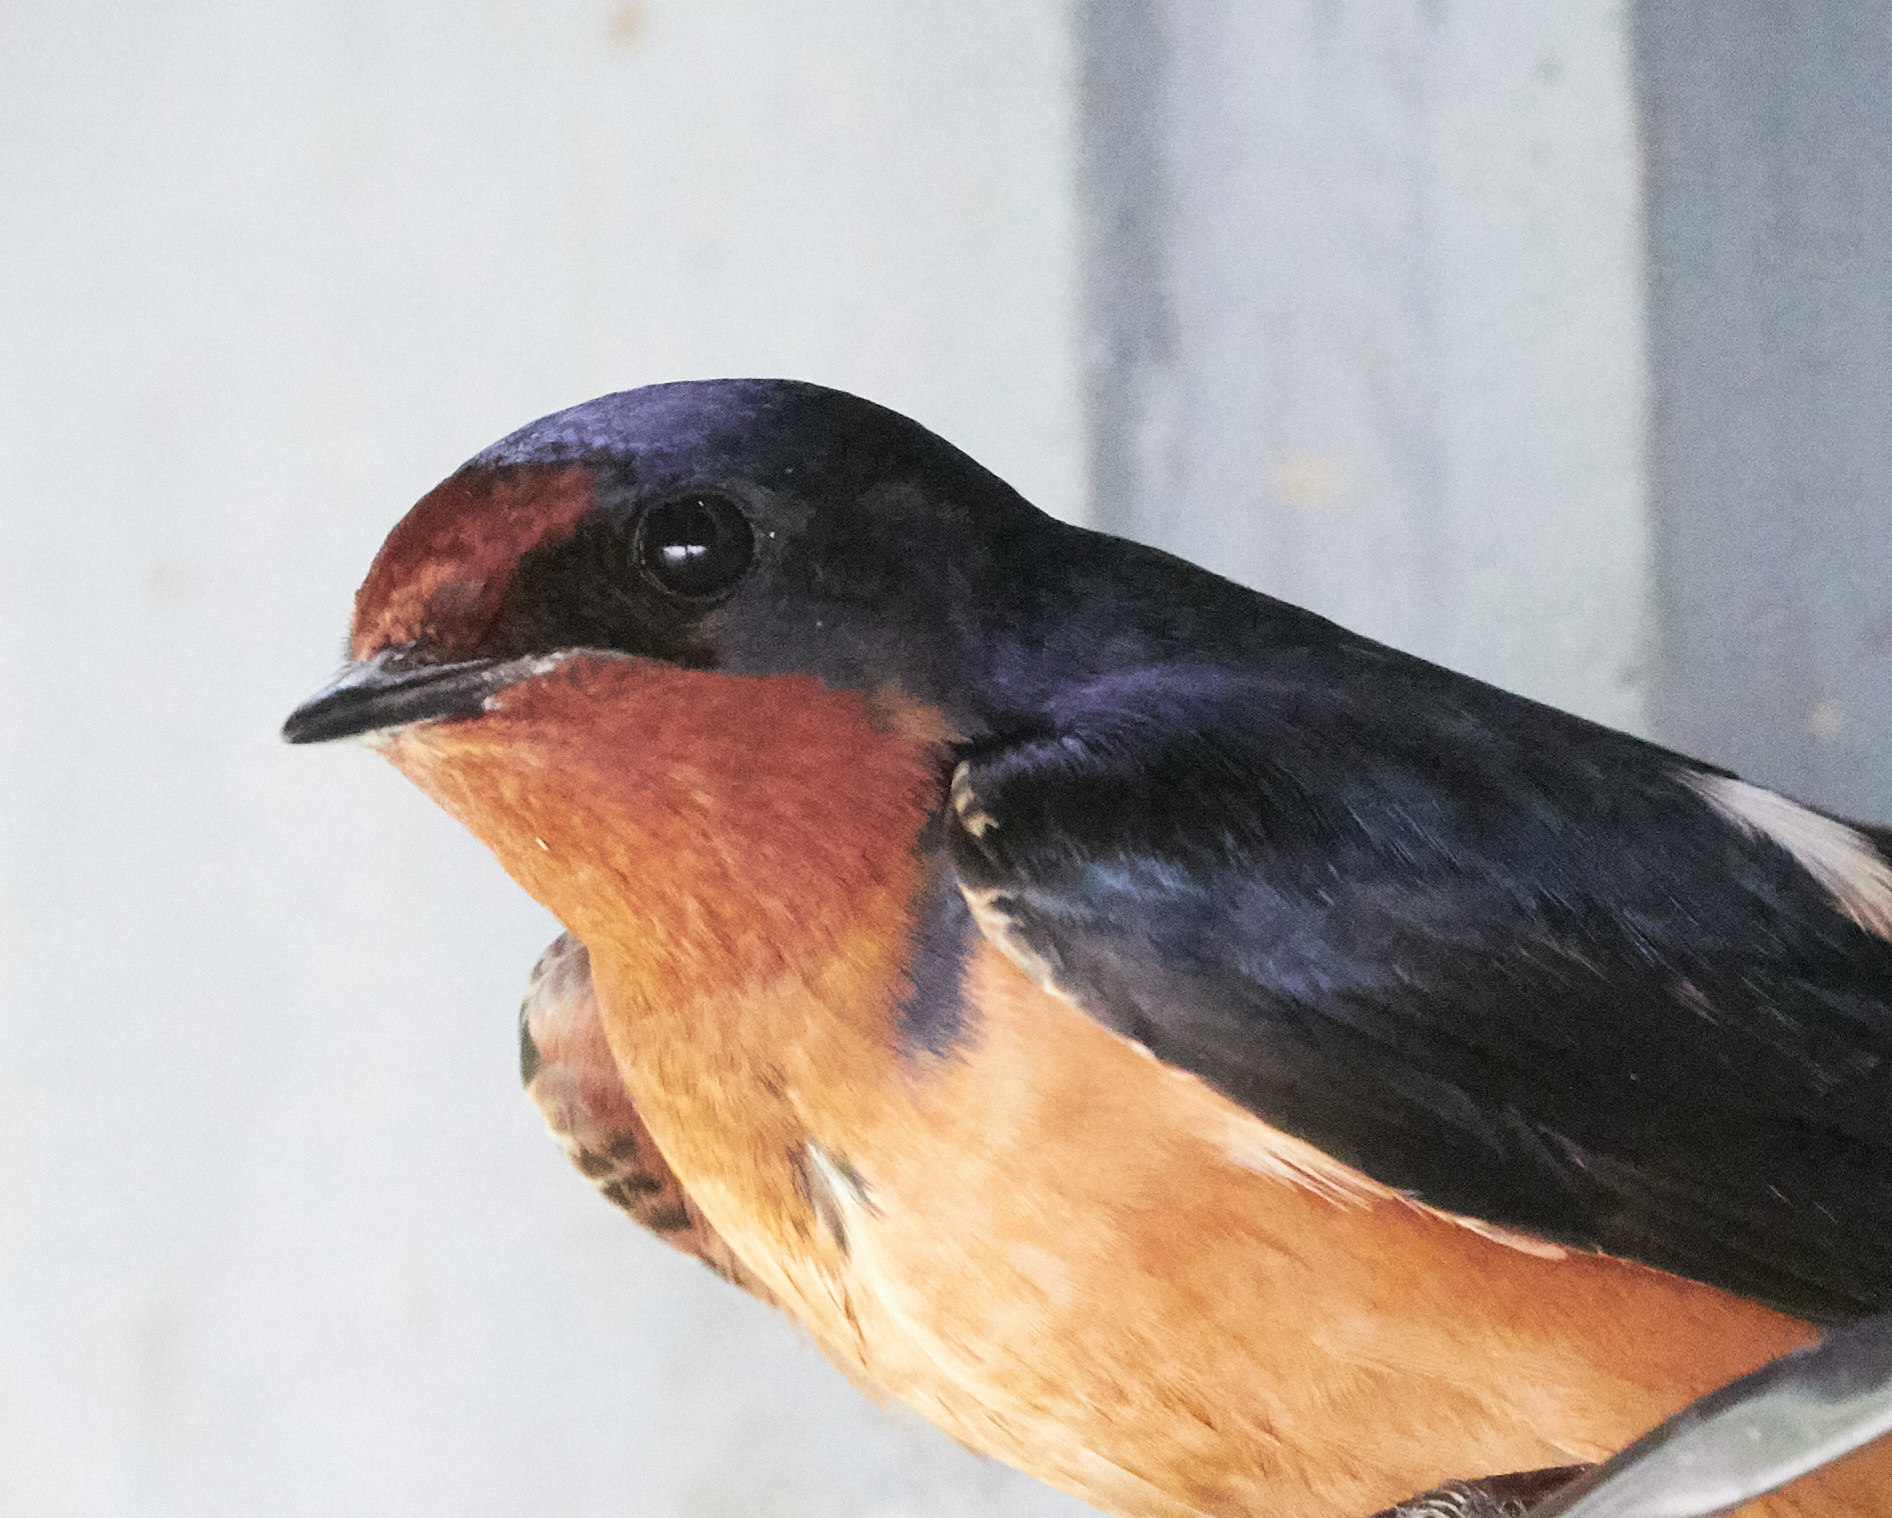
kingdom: Animalia
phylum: Chordata
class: Aves
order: Passeriformes
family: Hirundinidae
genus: Hirundo
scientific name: Hirundo rustica
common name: Barn swallow
